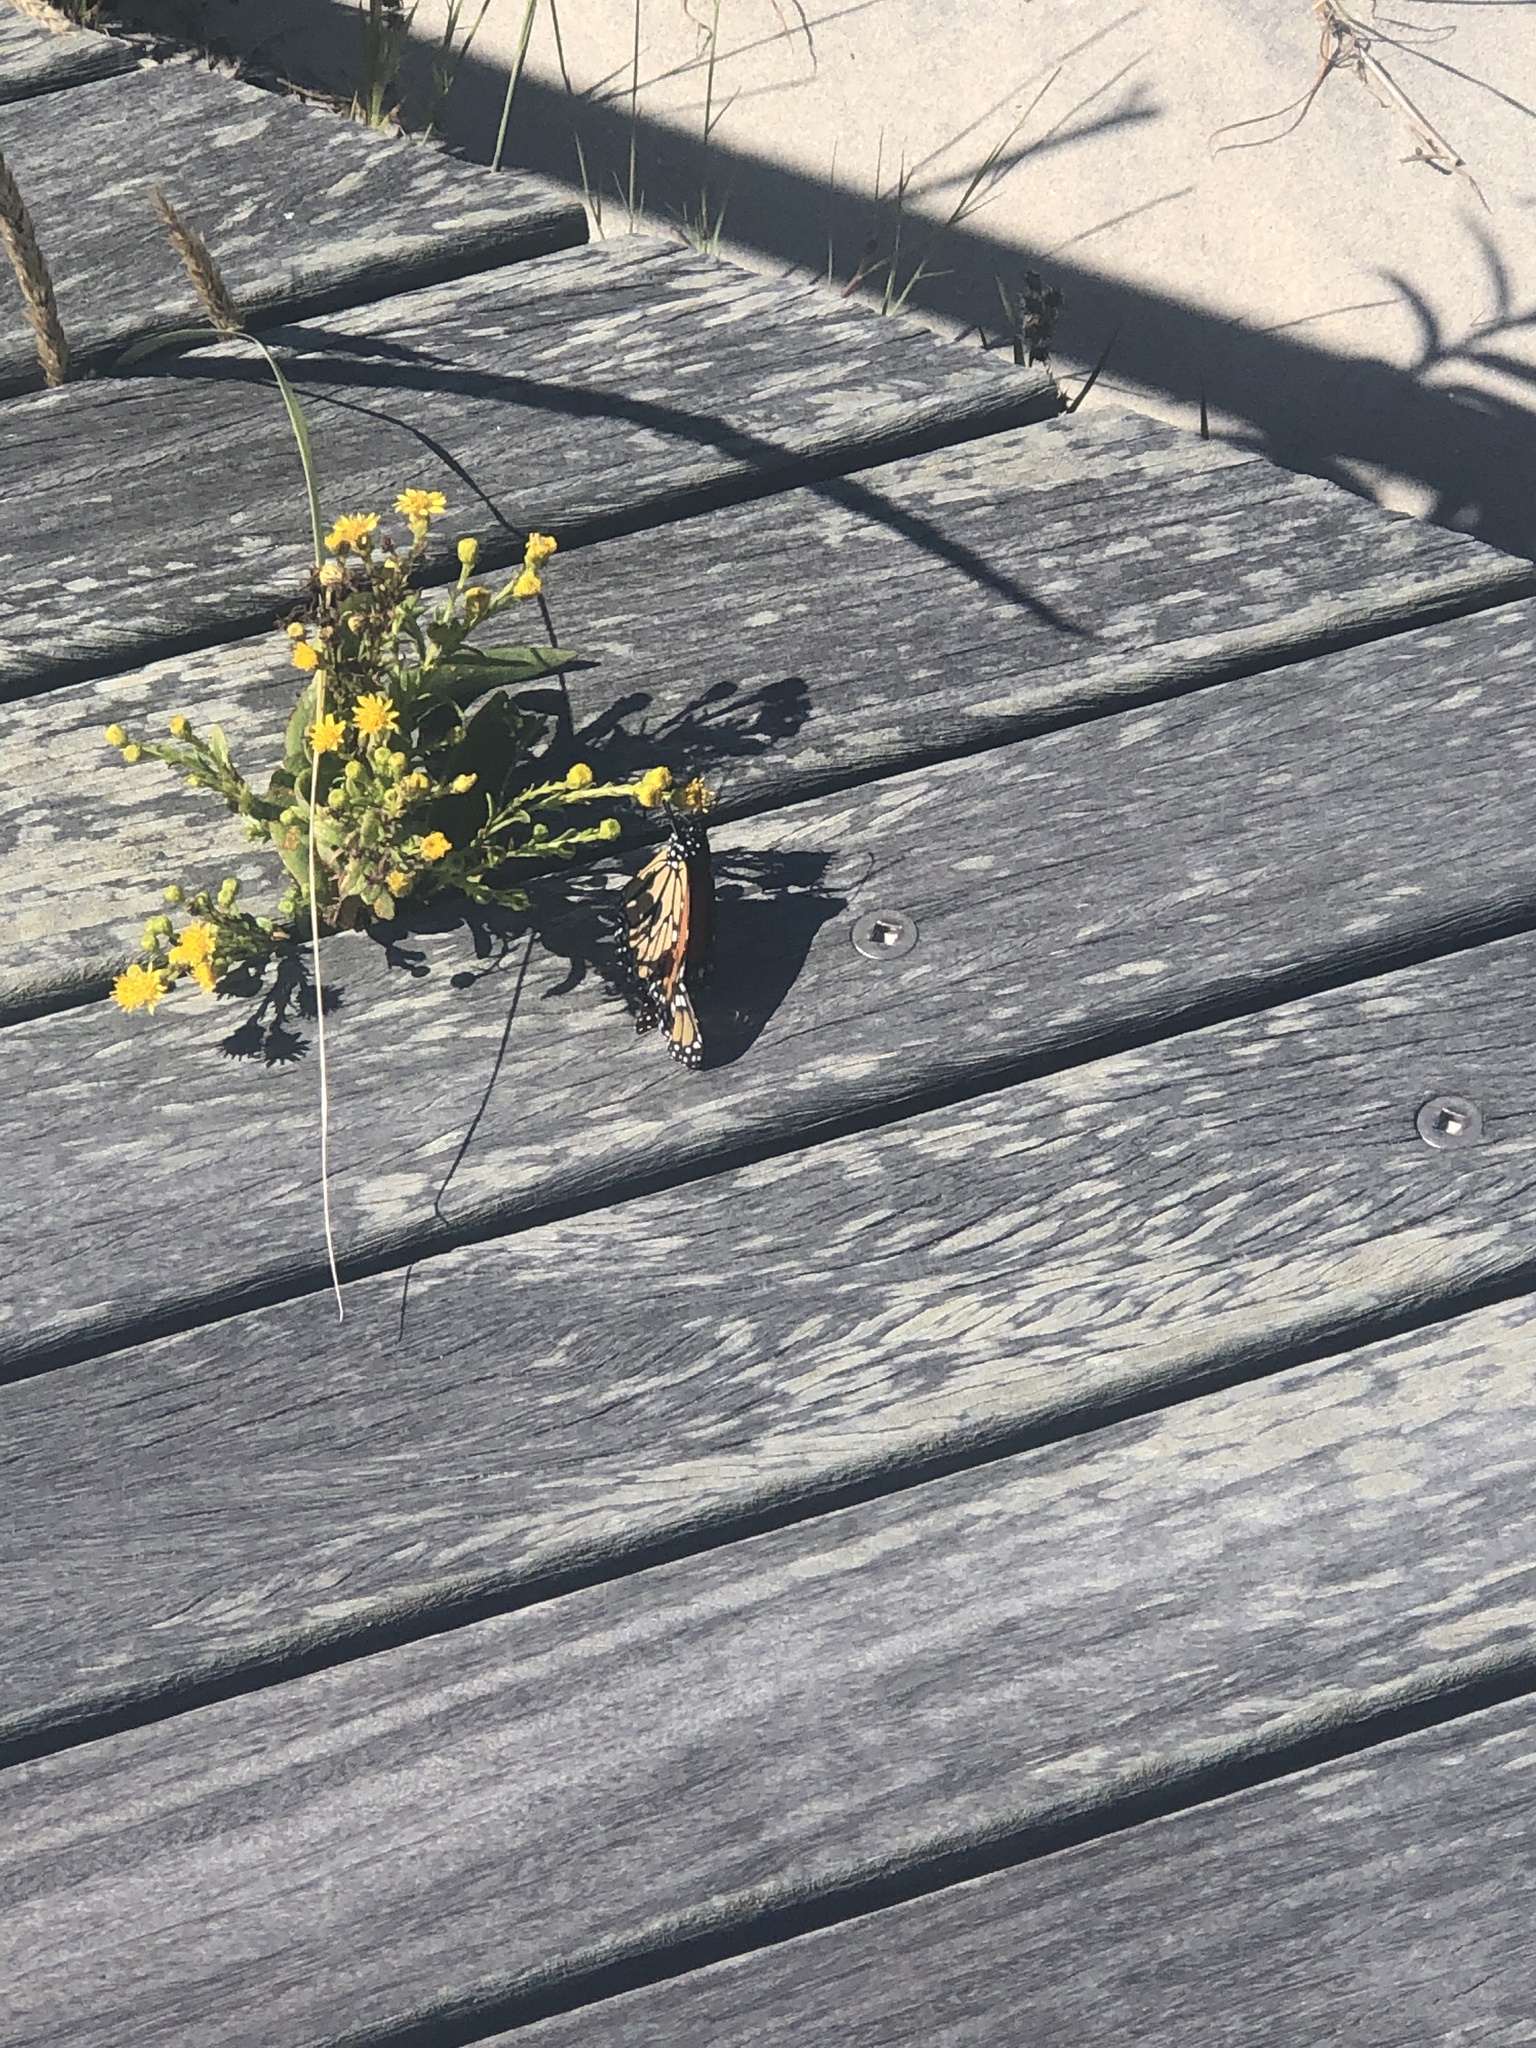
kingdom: Animalia
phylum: Arthropoda
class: Insecta
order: Lepidoptera
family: Nymphalidae
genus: Danaus
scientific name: Danaus plexippus
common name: Monarch
